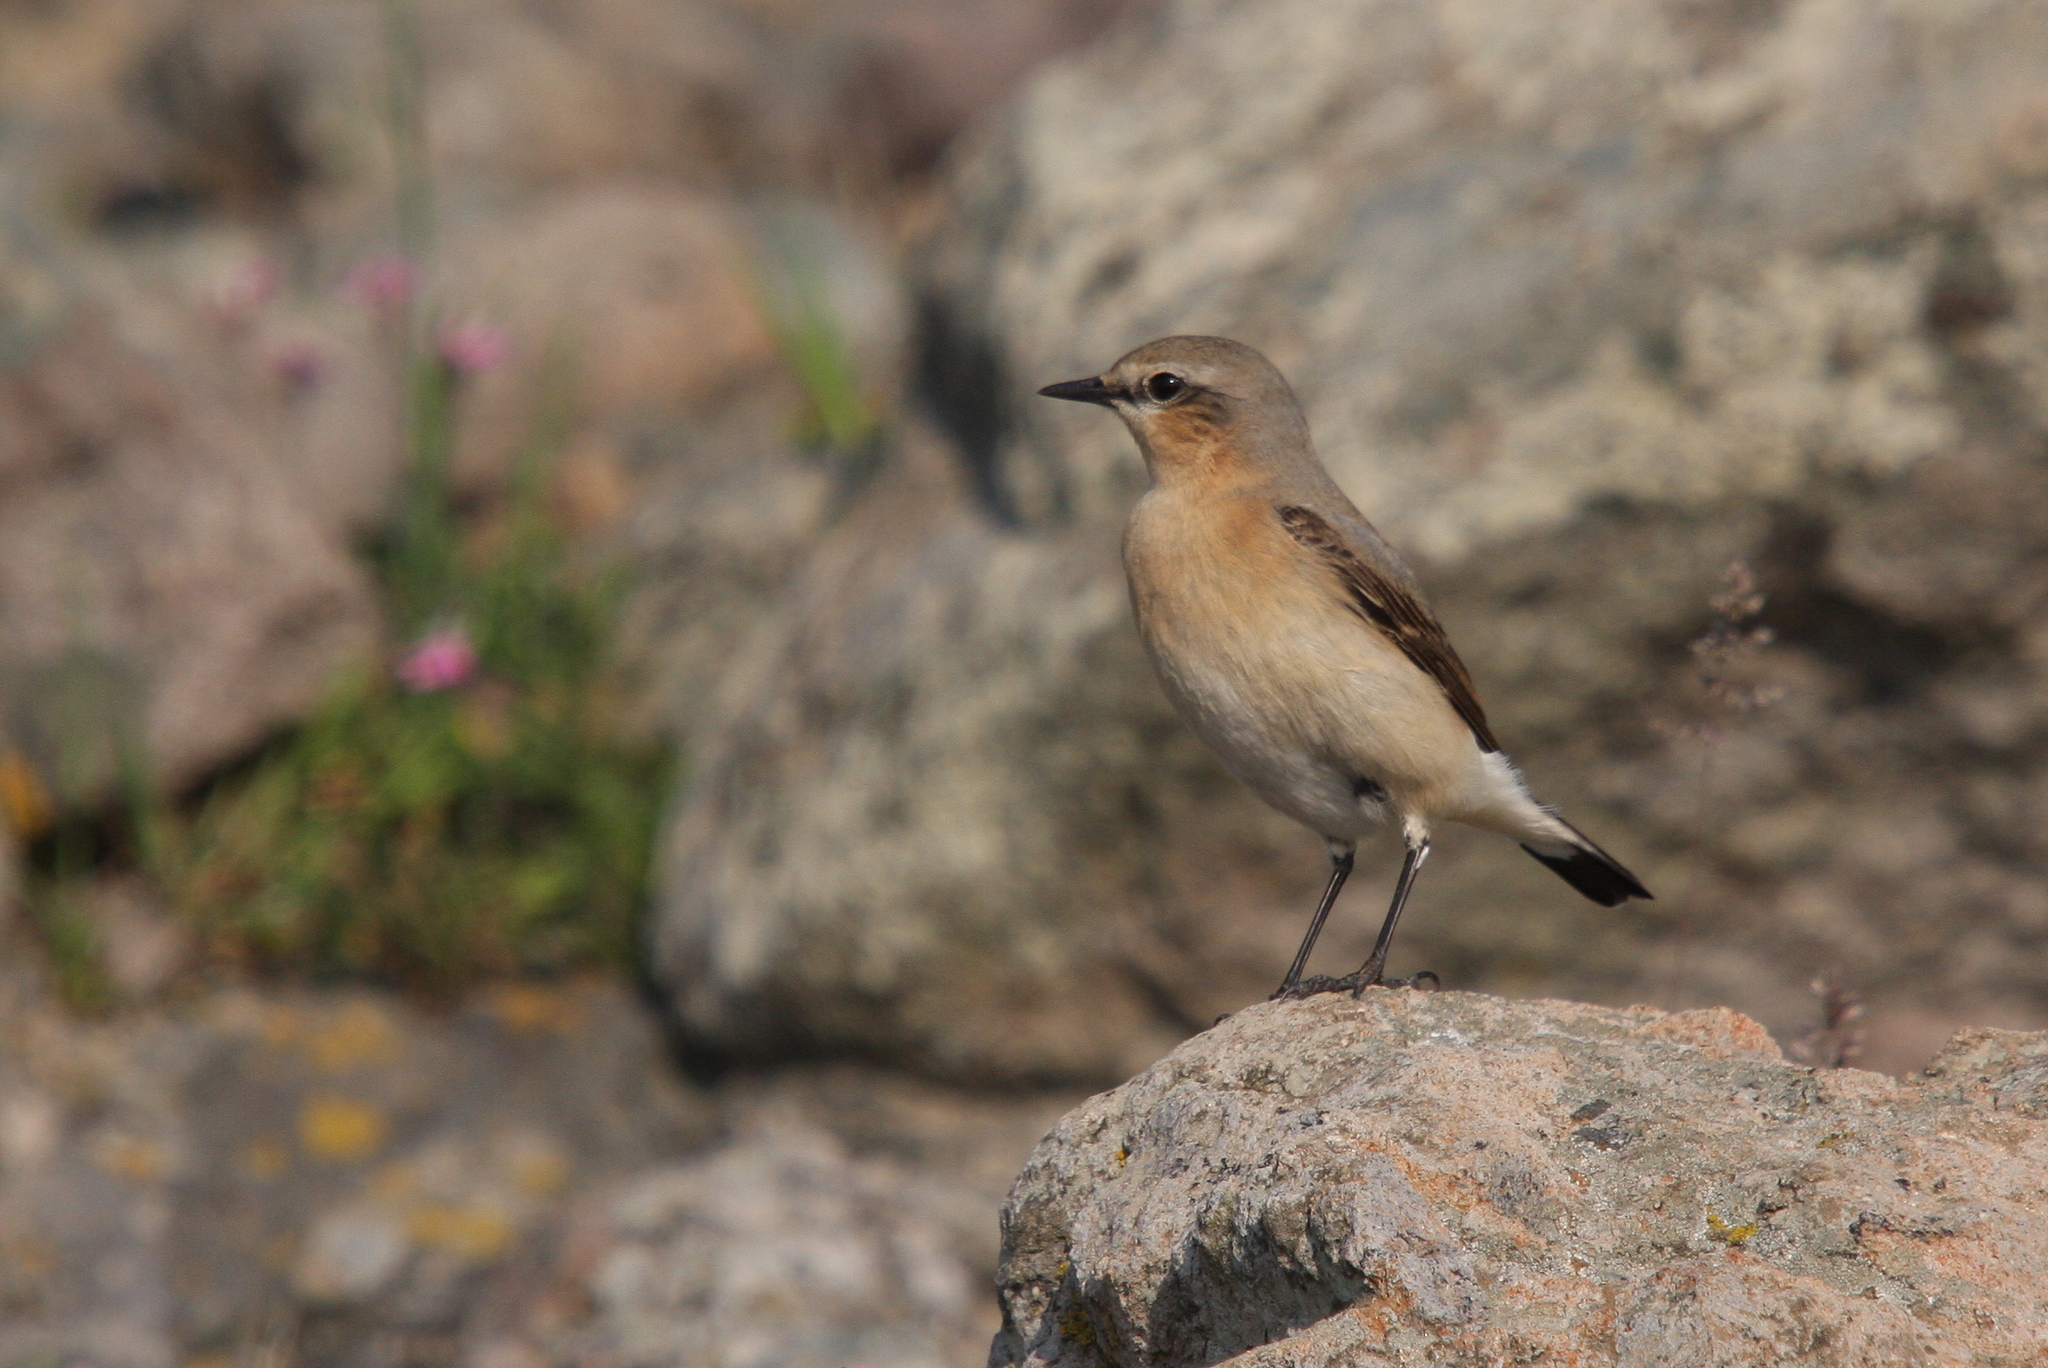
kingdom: Animalia
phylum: Chordata
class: Aves
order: Passeriformes
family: Muscicapidae
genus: Oenanthe
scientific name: Oenanthe oenanthe
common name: Northern wheatear
